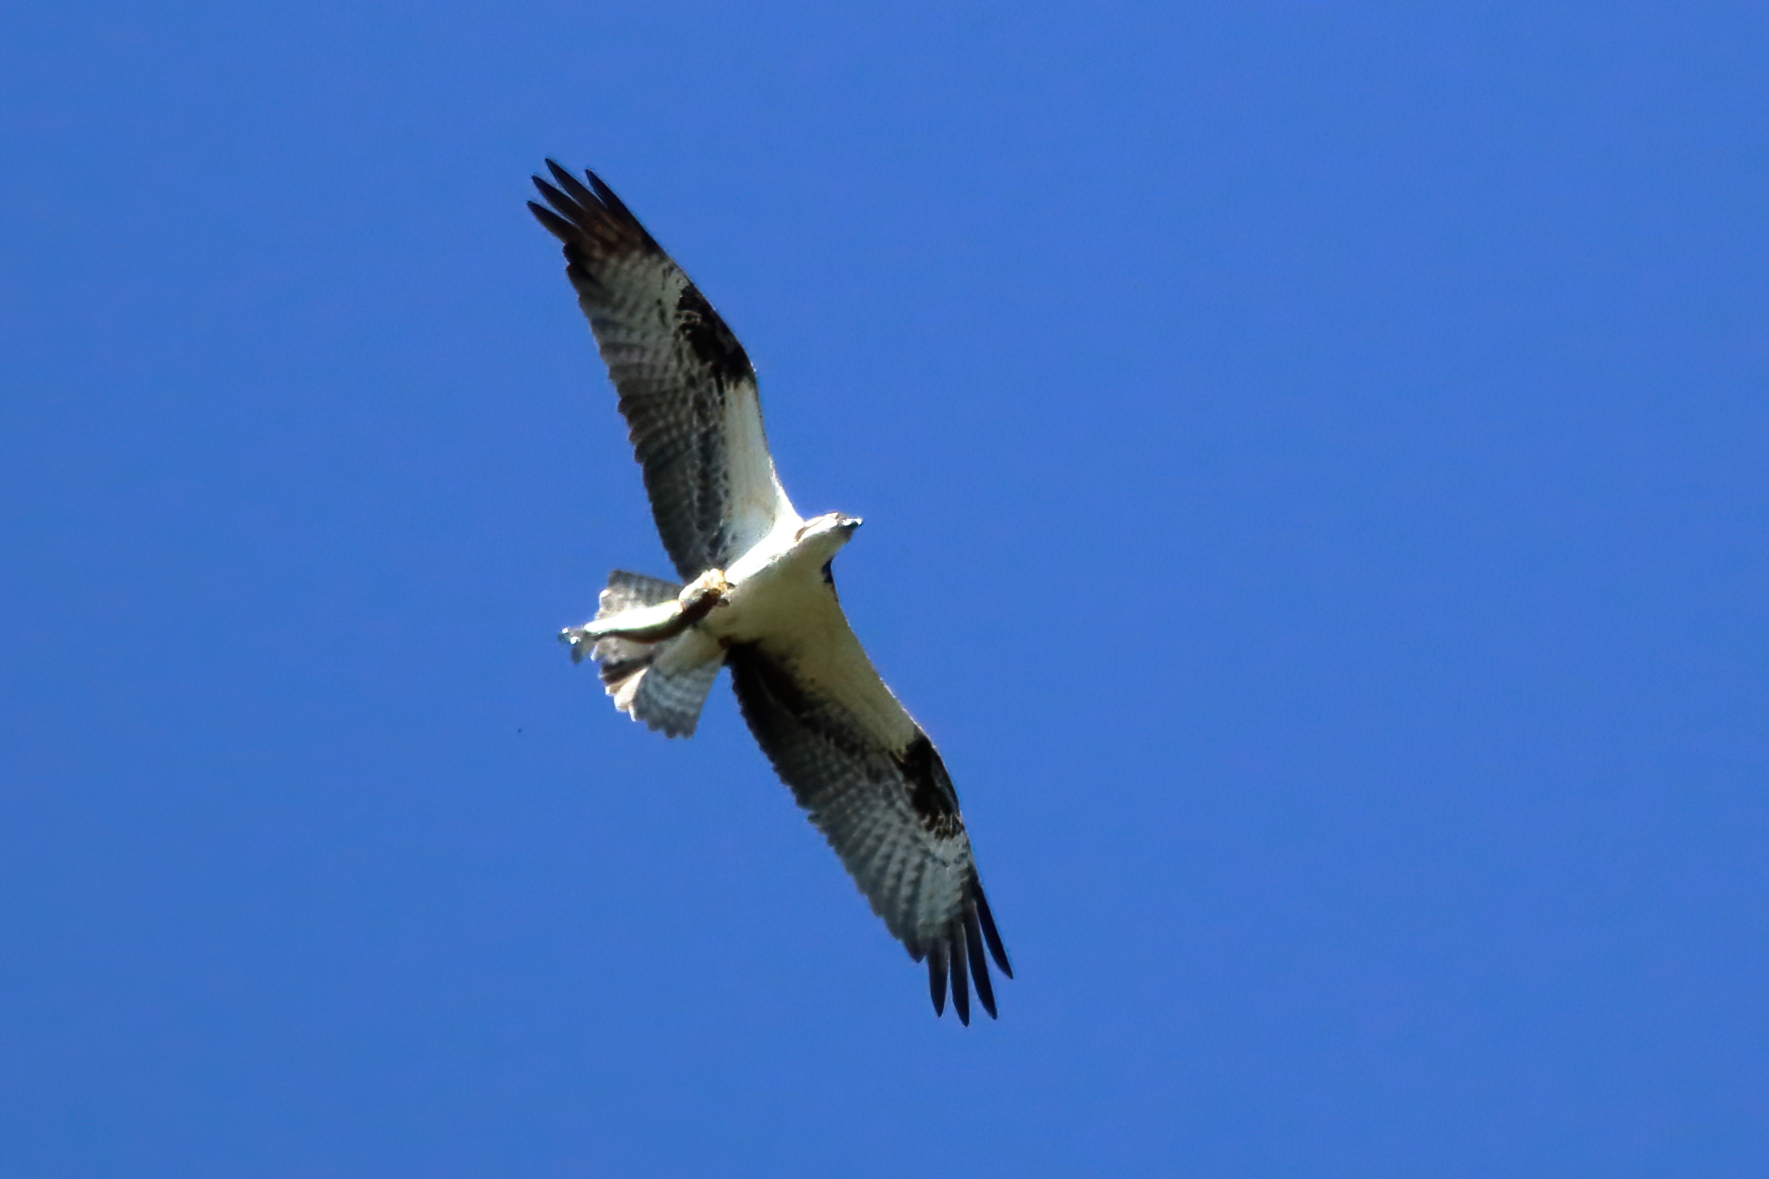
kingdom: Animalia
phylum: Chordata
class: Aves
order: Accipitriformes
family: Pandionidae
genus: Pandion
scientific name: Pandion haliaetus
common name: Osprey
